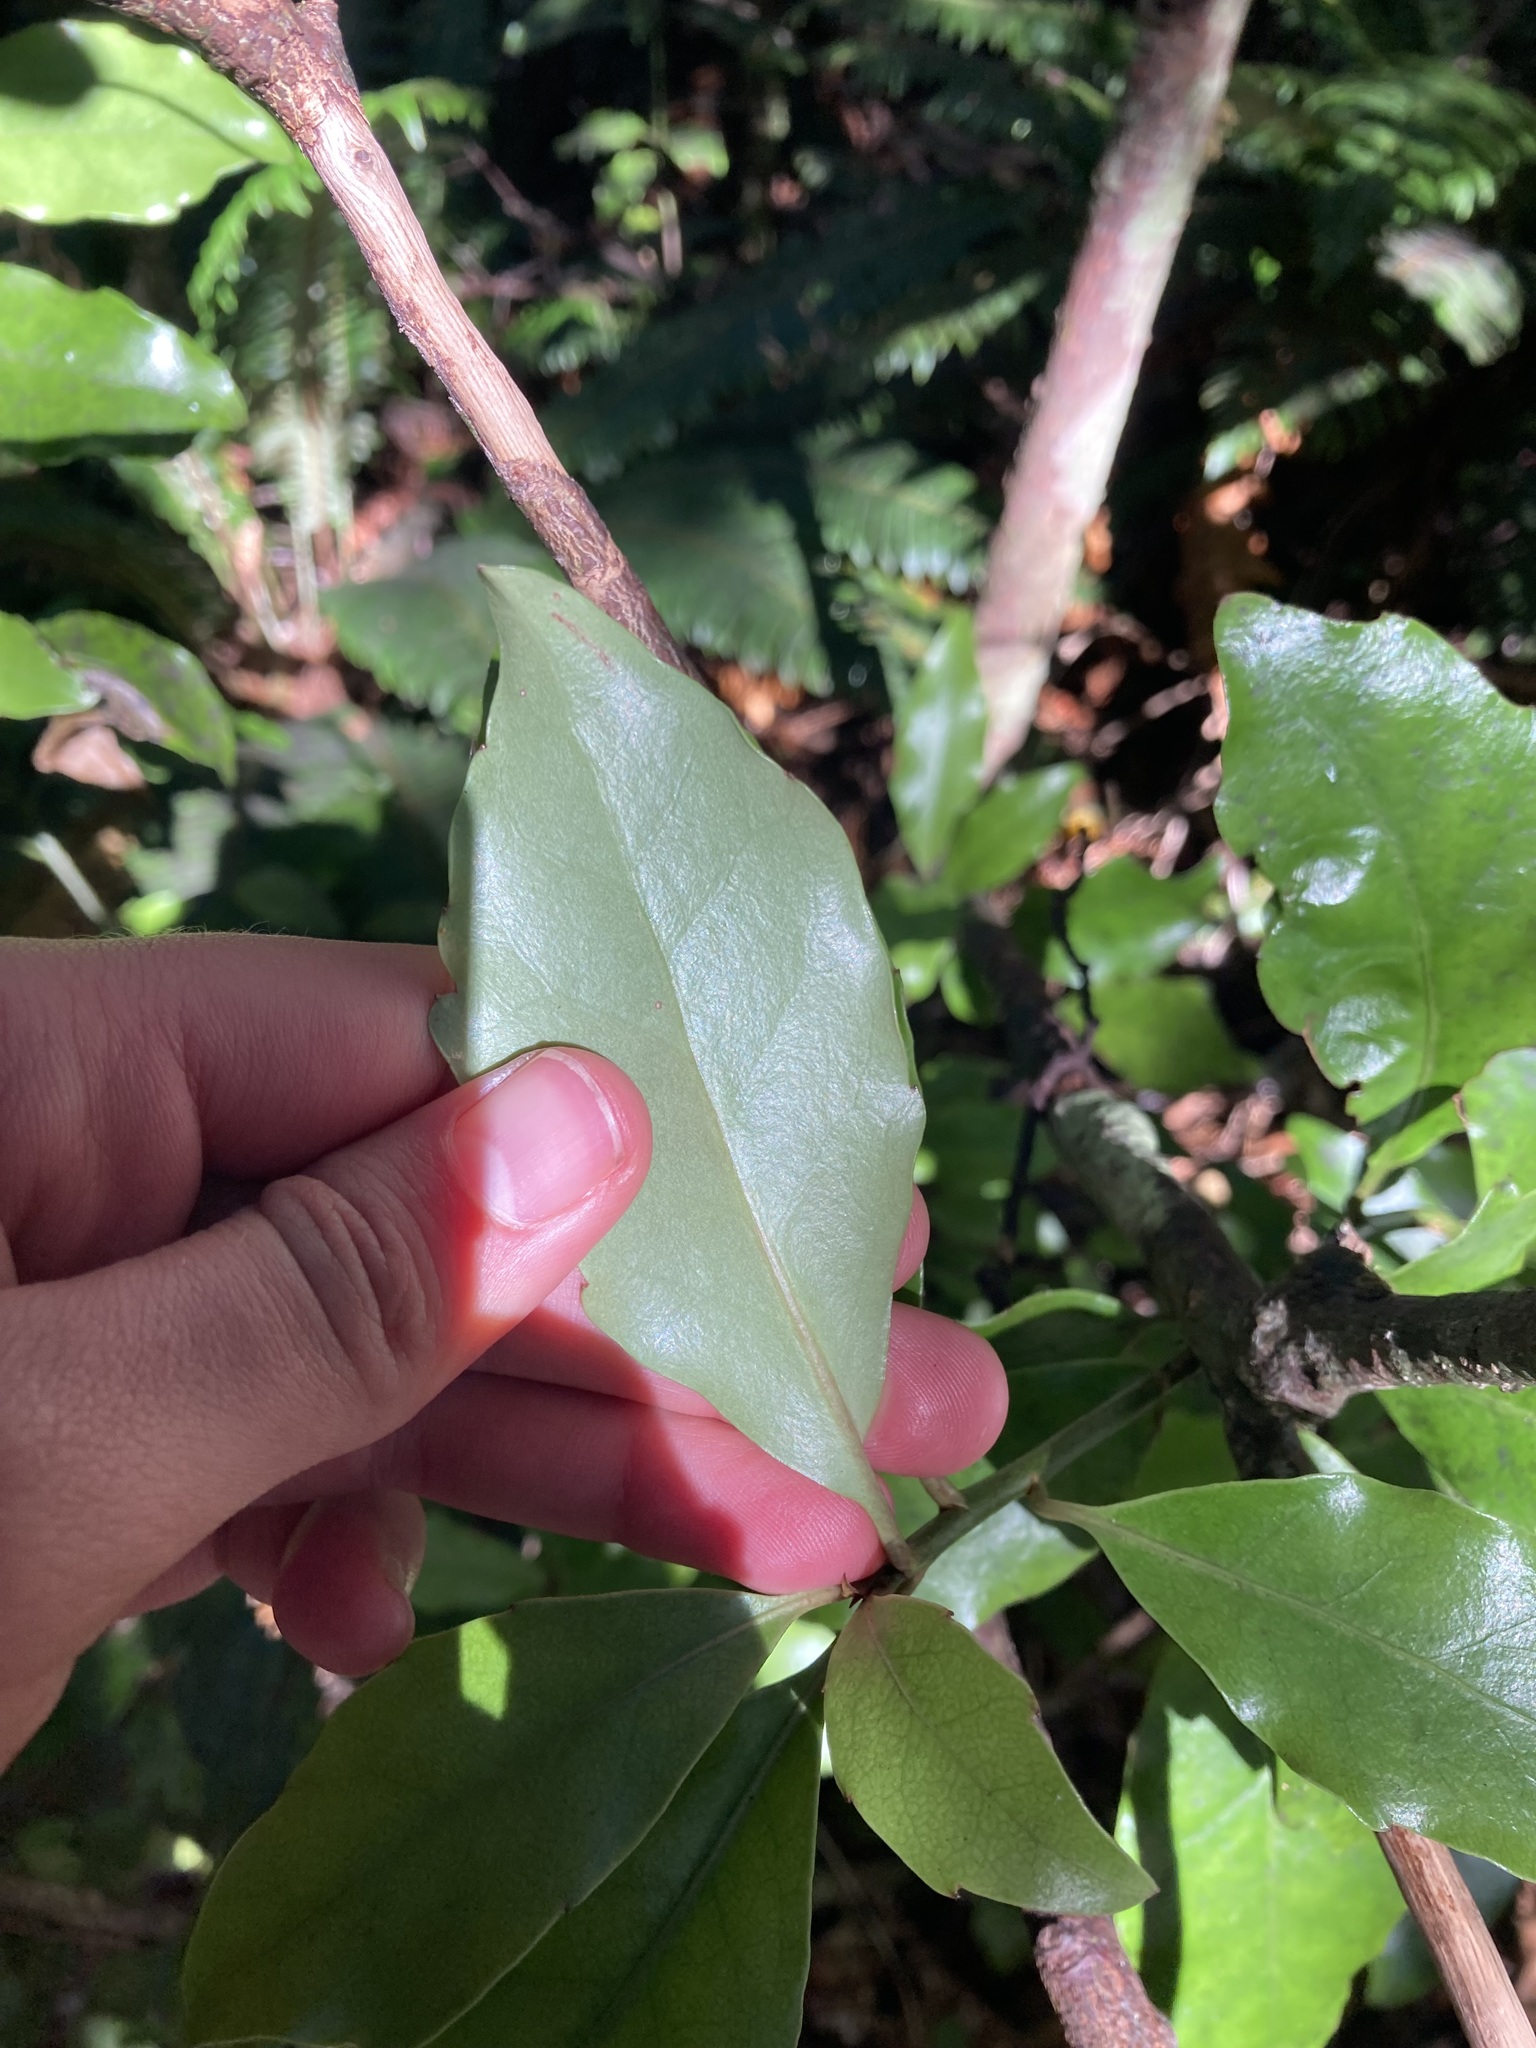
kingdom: Plantae
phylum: Tracheophyta
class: Magnoliopsida
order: Asterales
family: Alseuosmiaceae
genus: Alseuosmia
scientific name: Alseuosmia macrophylla
